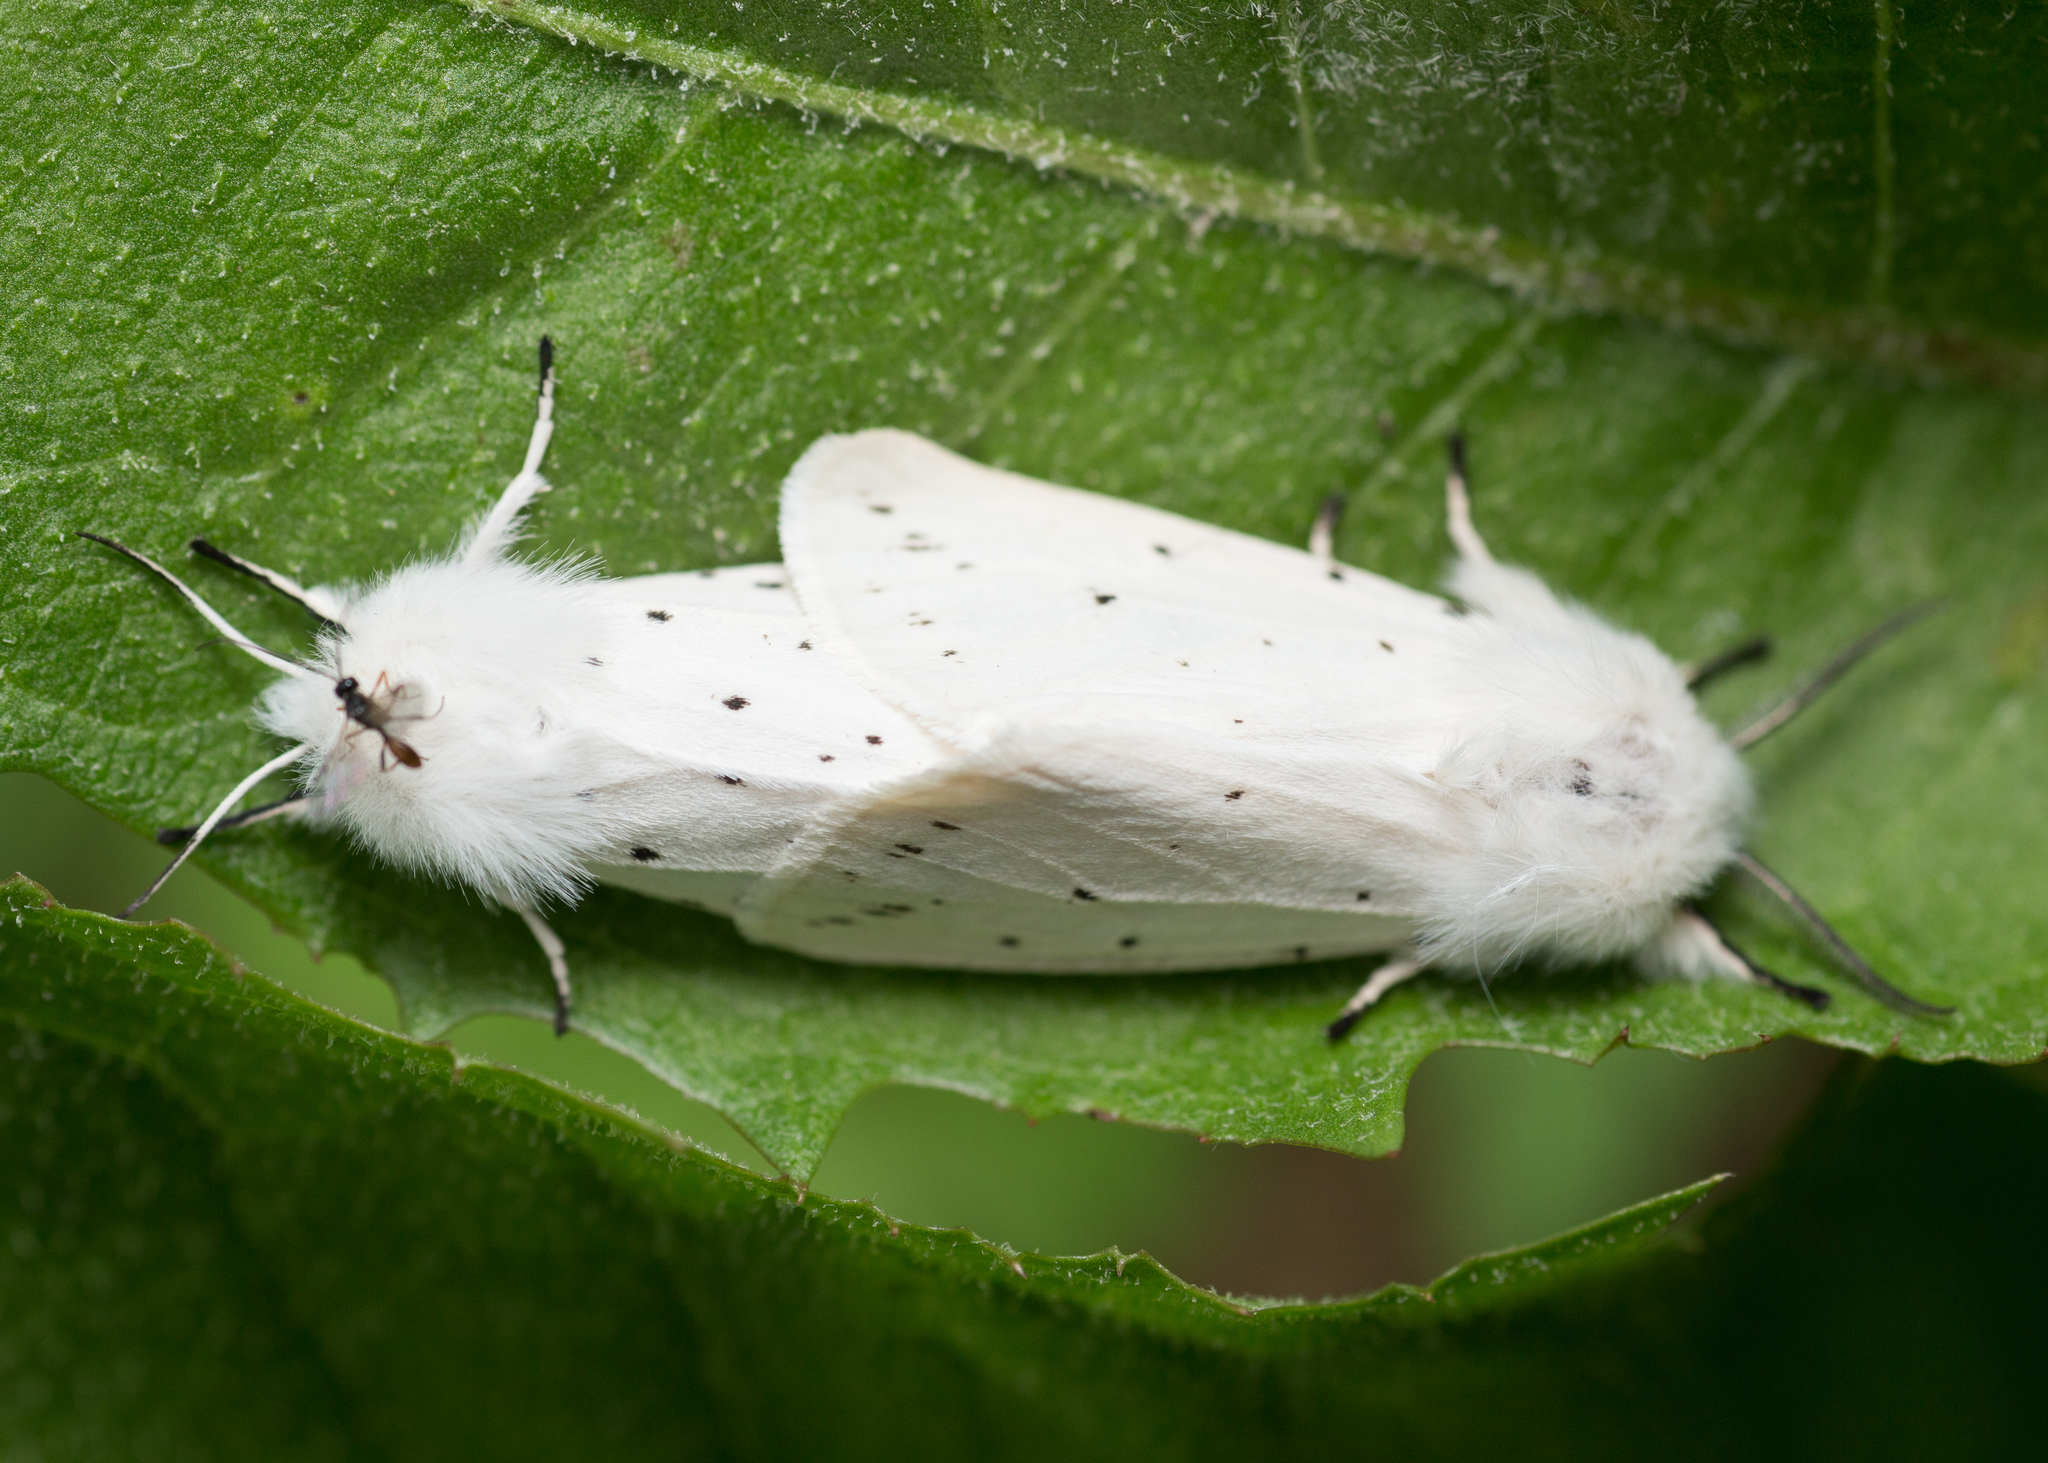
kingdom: Animalia
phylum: Arthropoda
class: Insecta
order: Lepidoptera
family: Erebidae
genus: Spilosoma
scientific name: Spilosoma lubricipeda
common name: White ermine
